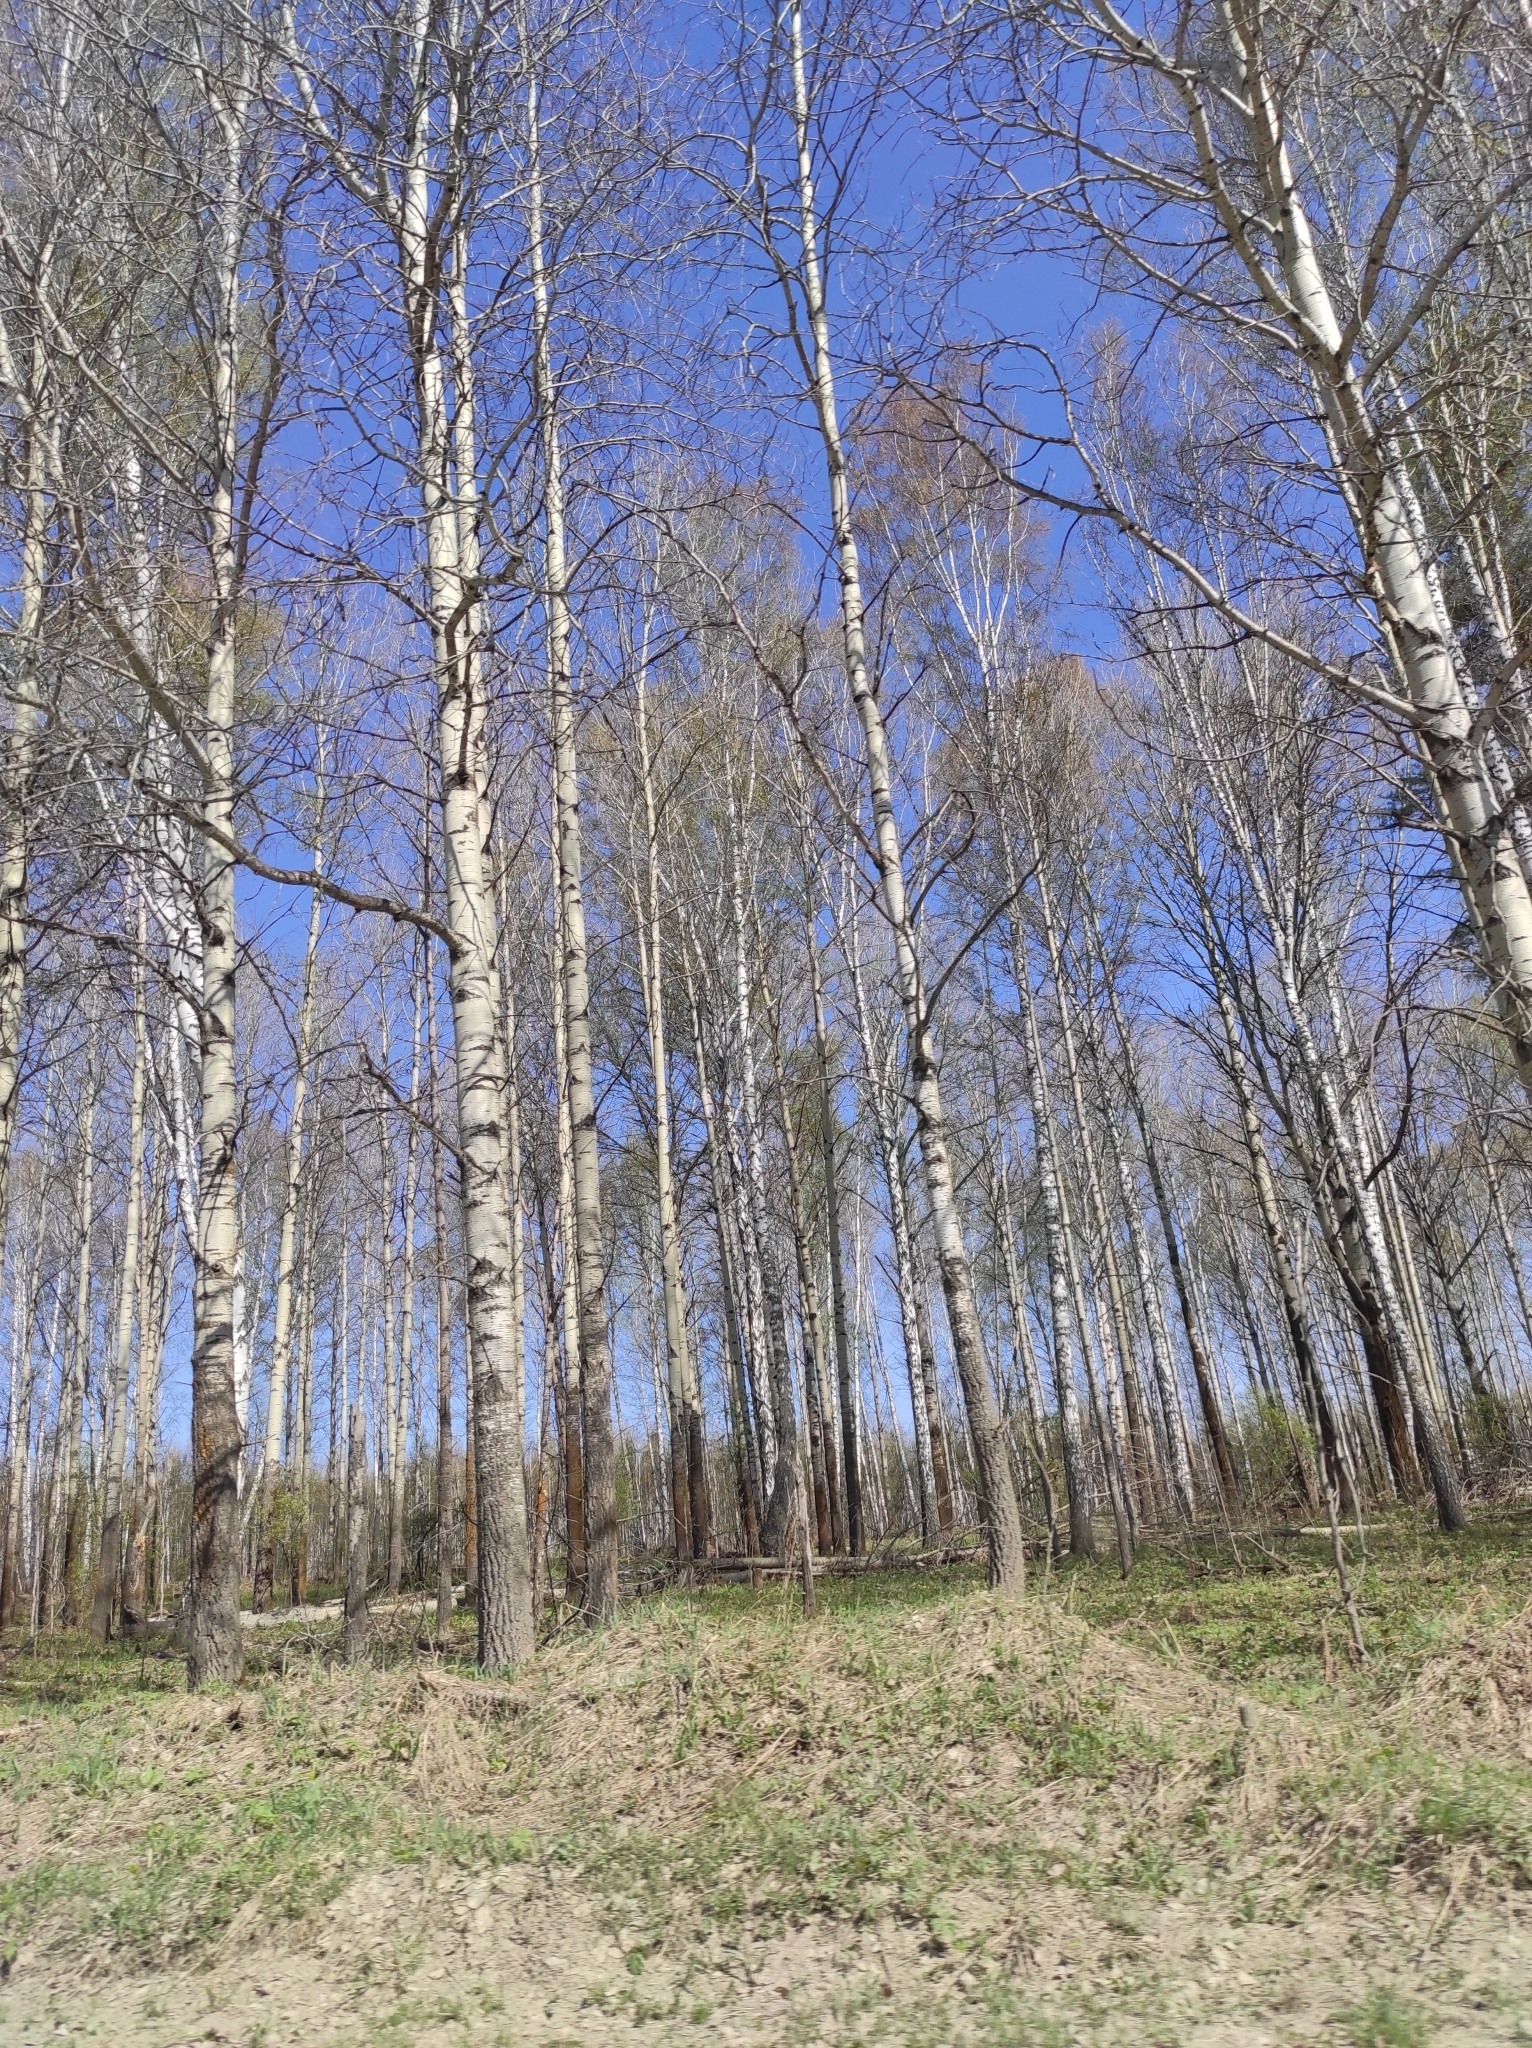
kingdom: Plantae
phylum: Tracheophyta
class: Magnoliopsida
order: Malpighiales
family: Salicaceae
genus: Populus
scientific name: Populus tremula
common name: European aspen
